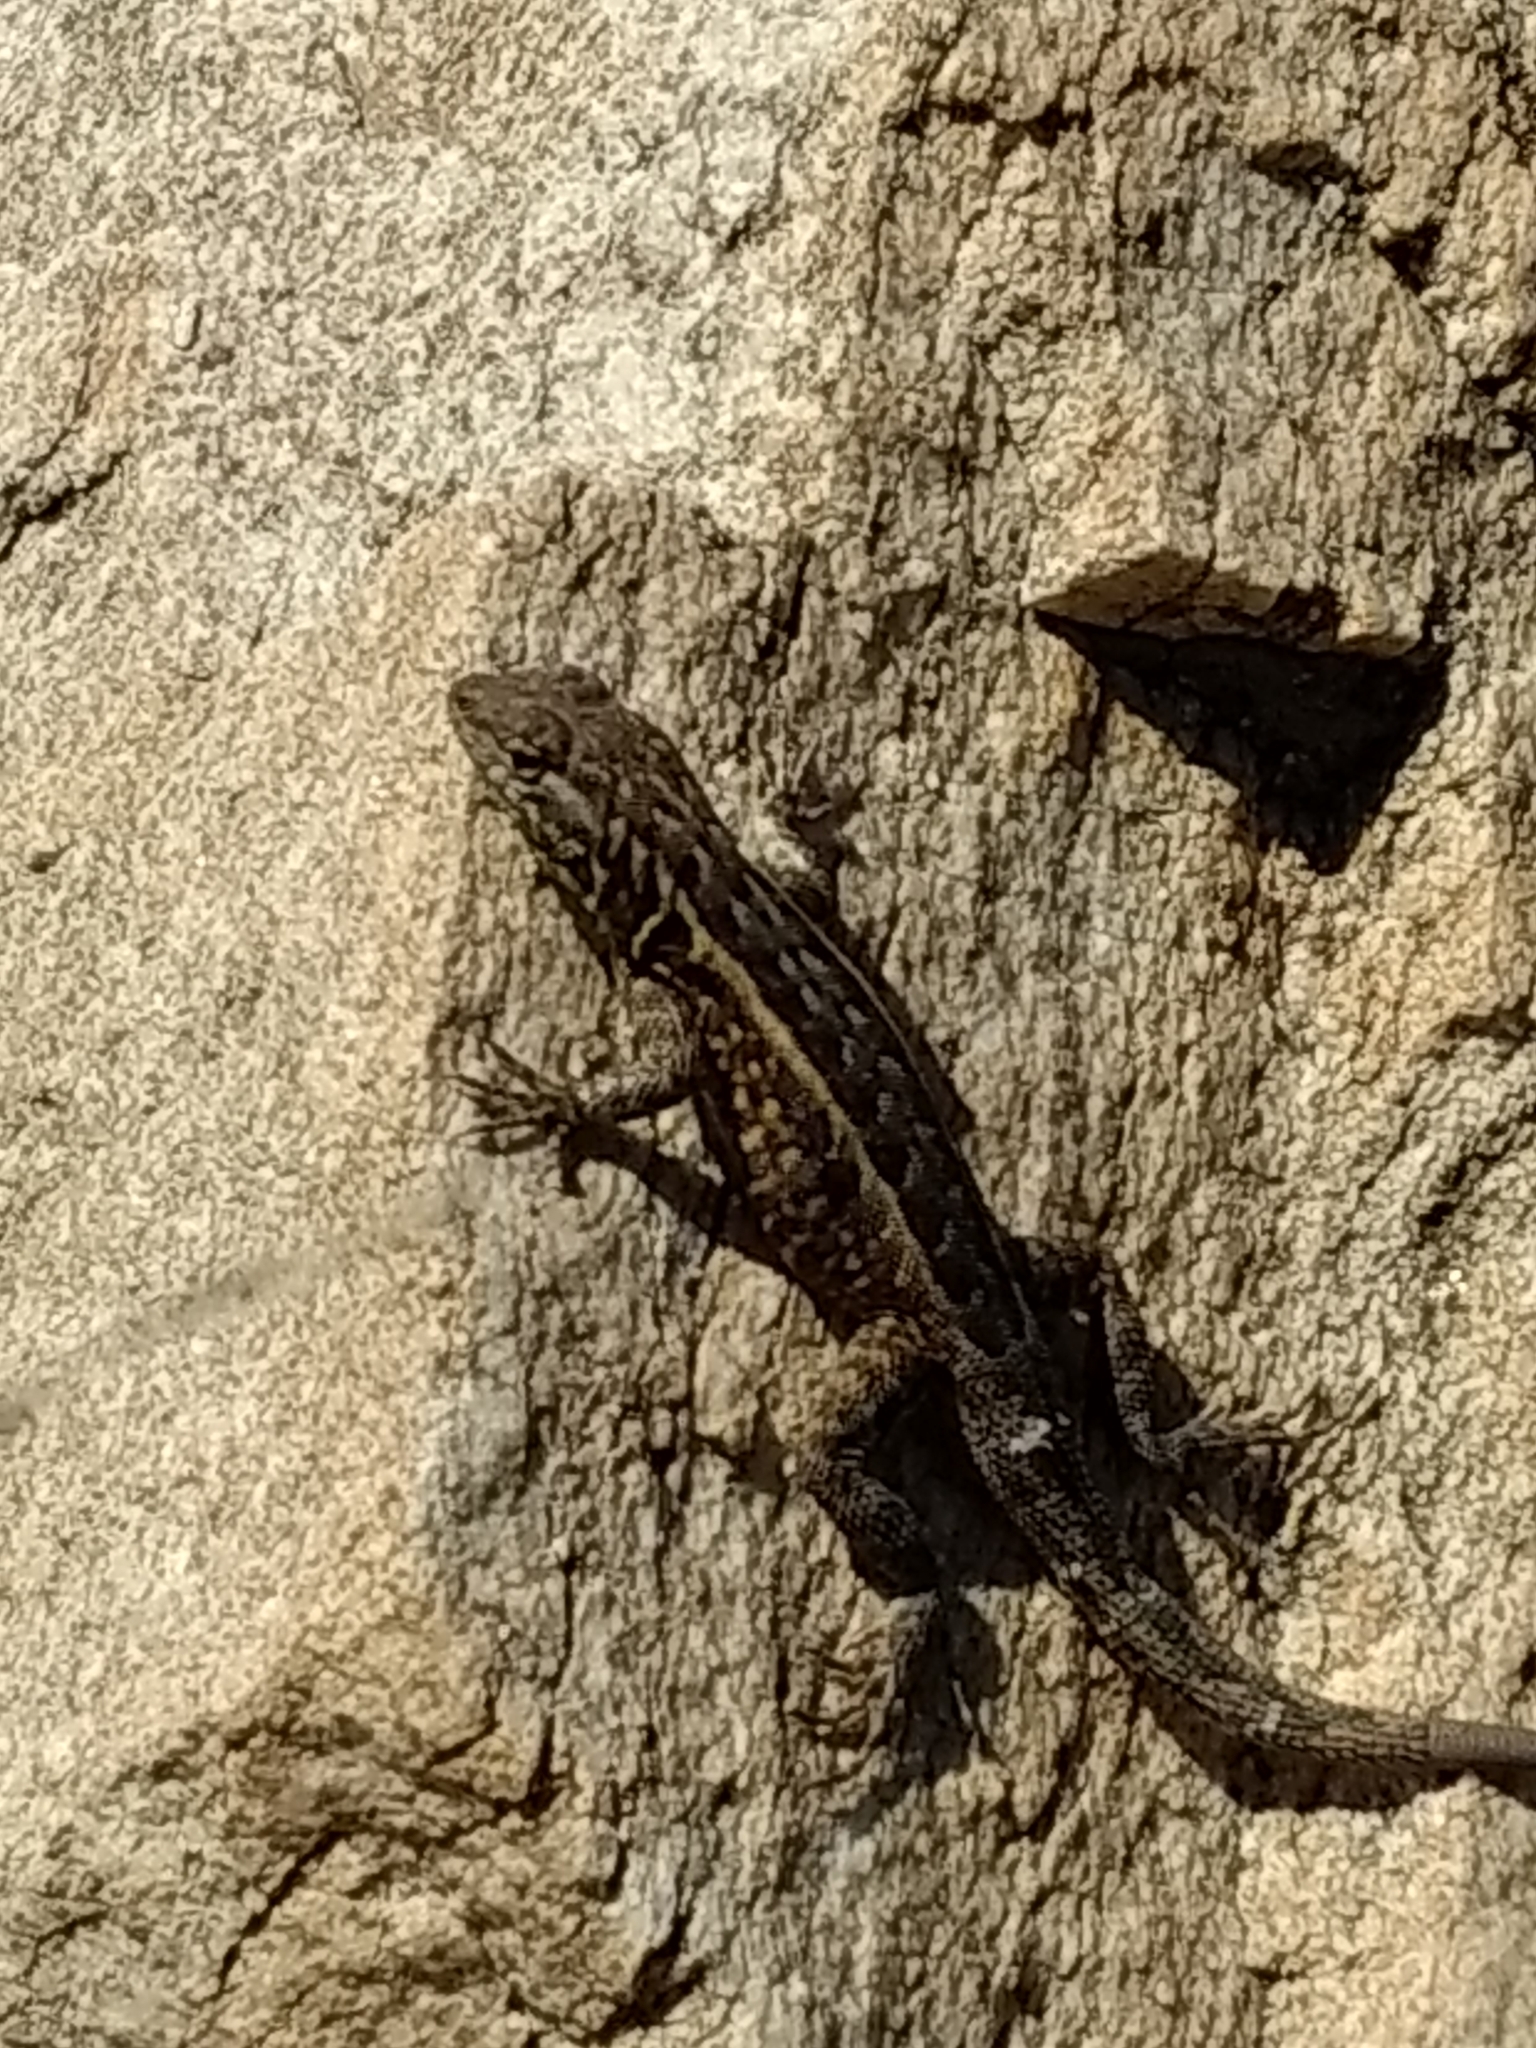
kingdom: Animalia
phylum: Chordata
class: Squamata
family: Phrynosomatidae
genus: Uta
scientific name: Uta stansburiana
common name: Side-blotched lizard
